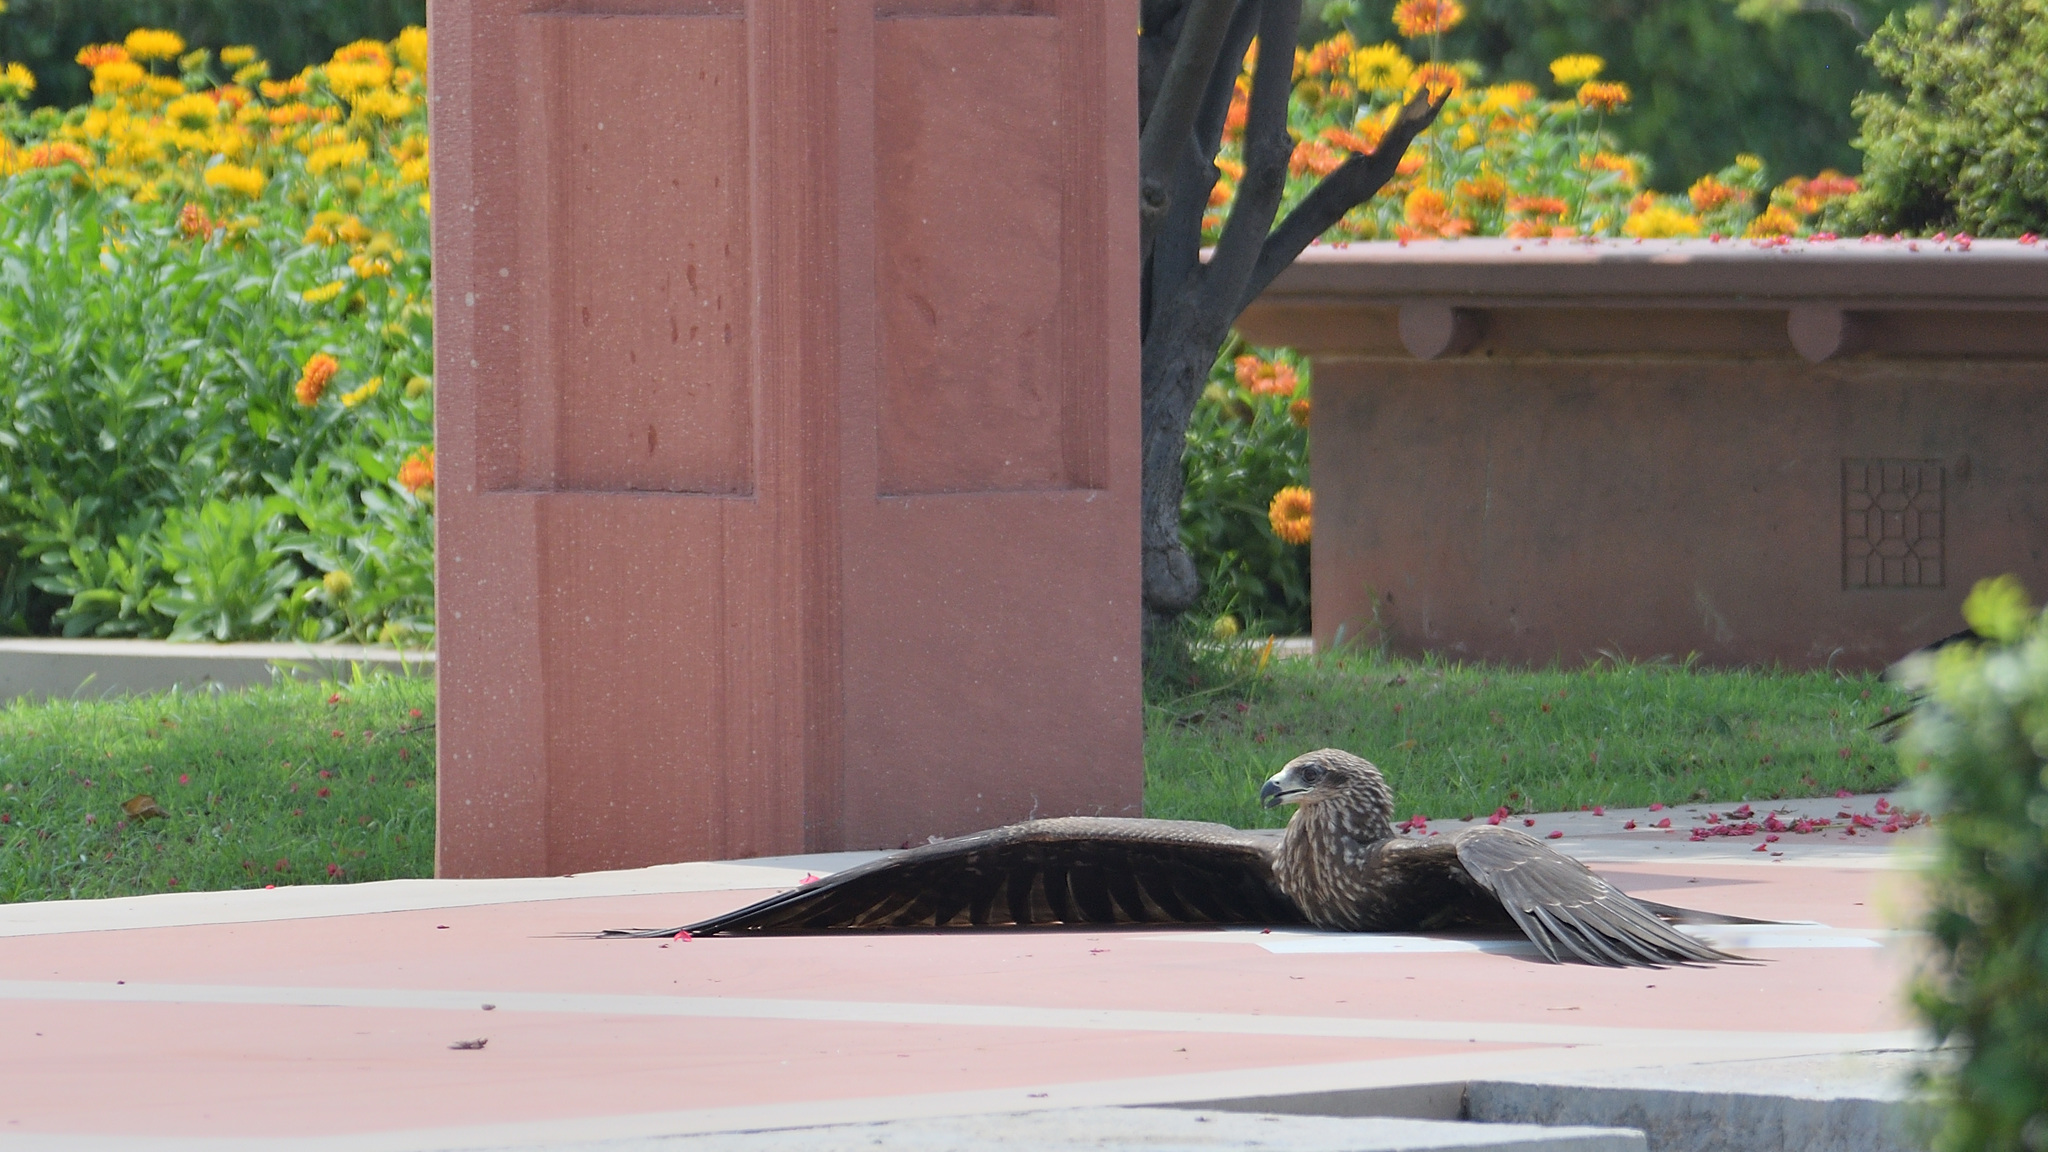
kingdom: Animalia
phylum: Chordata
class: Aves
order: Accipitriformes
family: Accipitridae
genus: Milvus
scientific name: Milvus migrans
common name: Black kite
